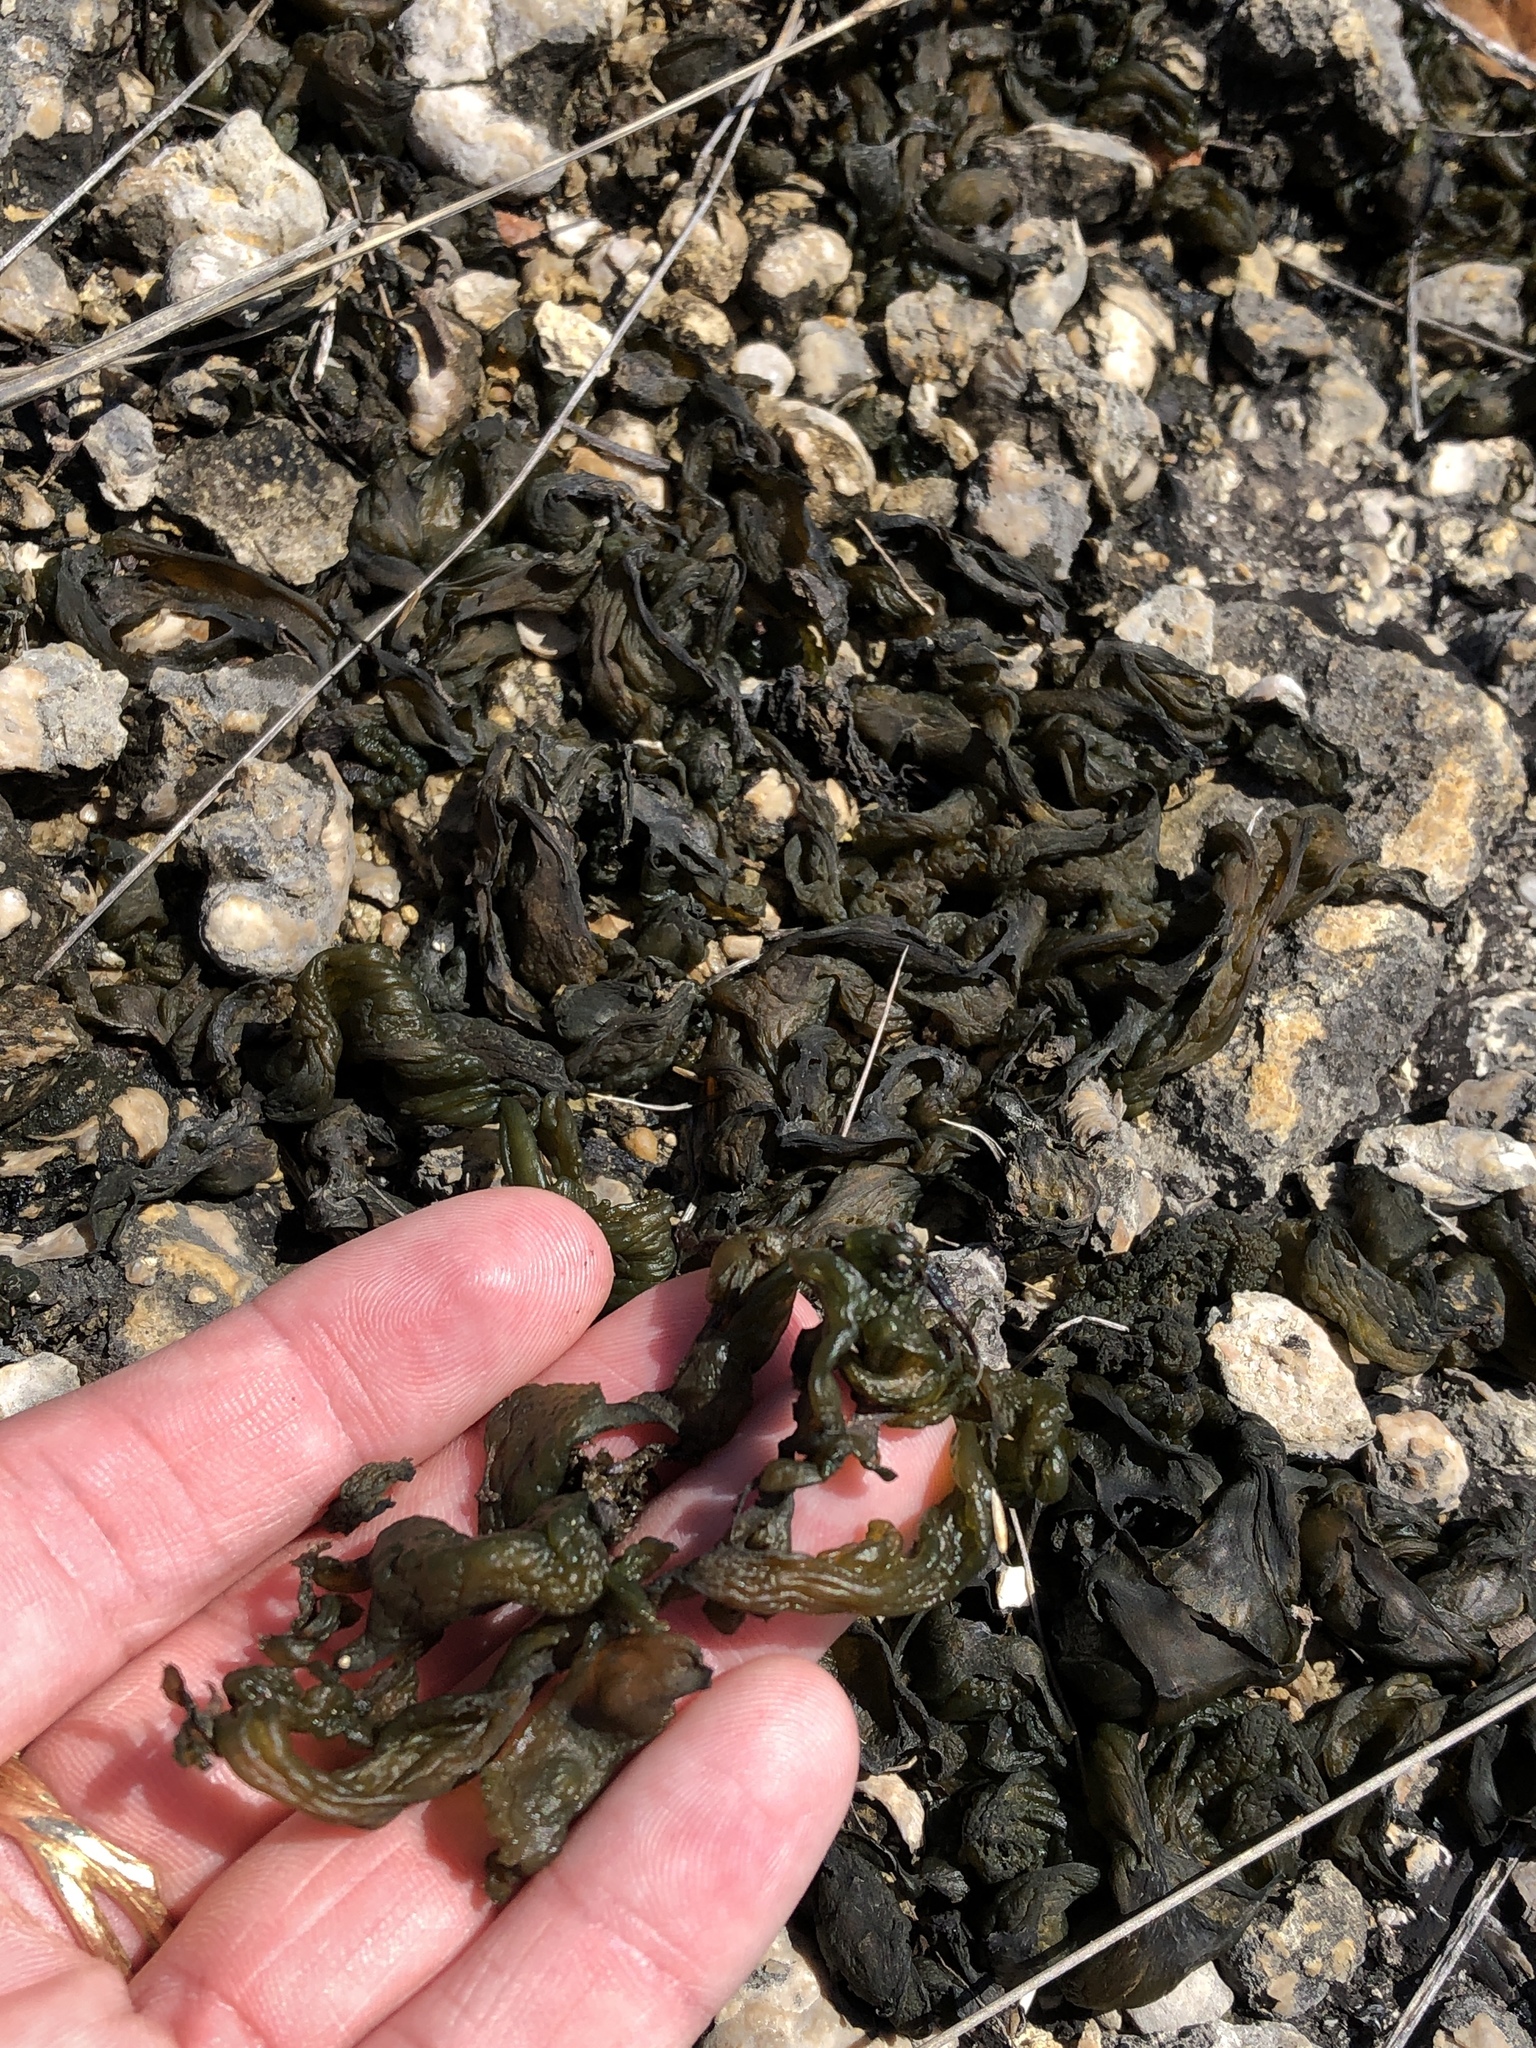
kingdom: Bacteria
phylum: Cyanobacteria
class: Cyanobacteriia
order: Cyanobacteriales
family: Nostocaceae
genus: Nostoc
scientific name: Nostoc commune
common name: Star jelly
